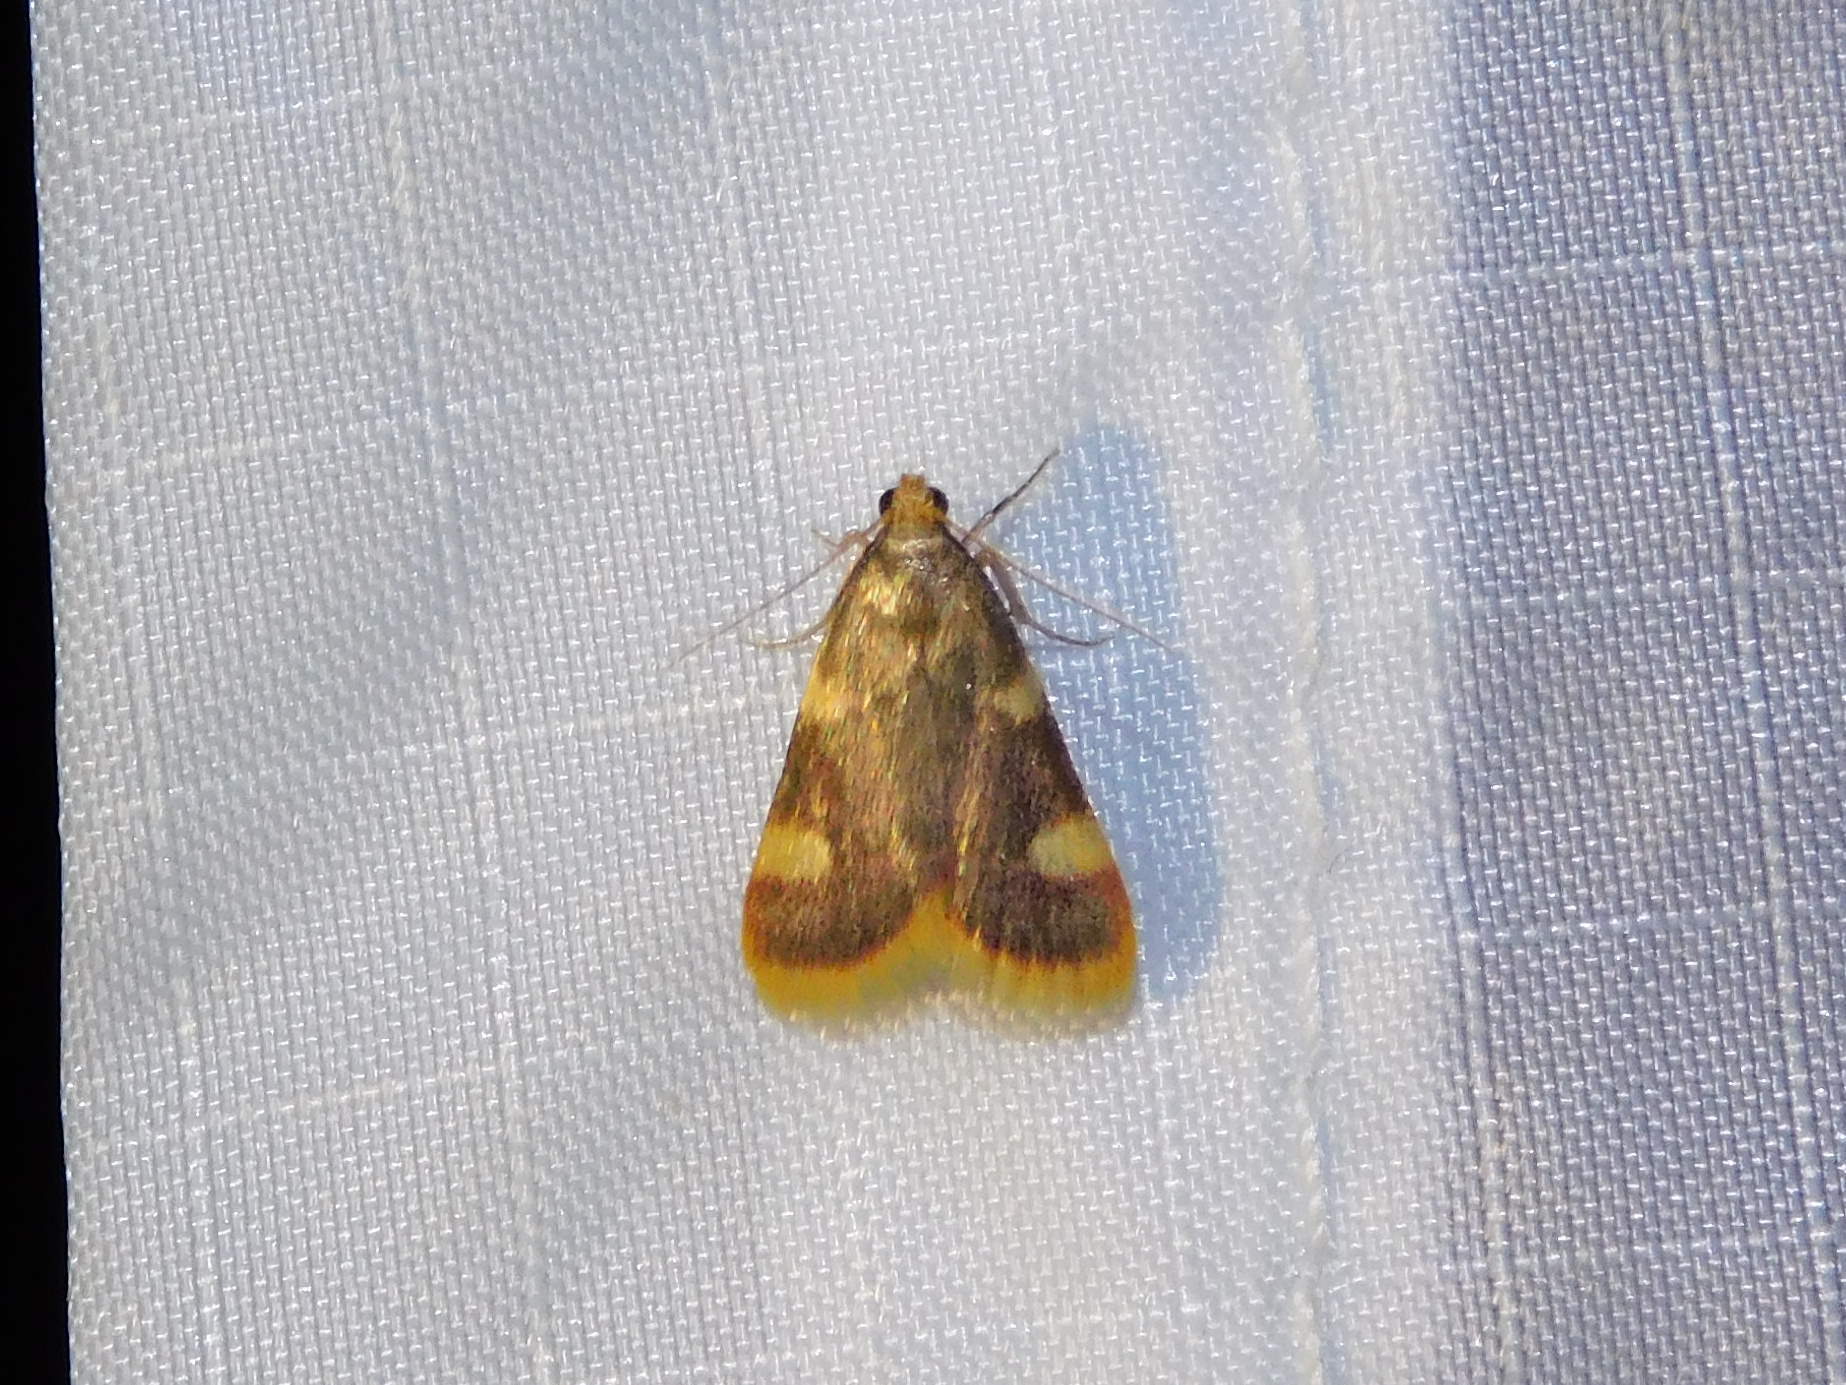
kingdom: Animalia
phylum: Arthropoda
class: Insecta
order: Lepidoptera
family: Pyralidae
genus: Hypsopygia
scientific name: Hypsopygia costalis
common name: Gold triangle
